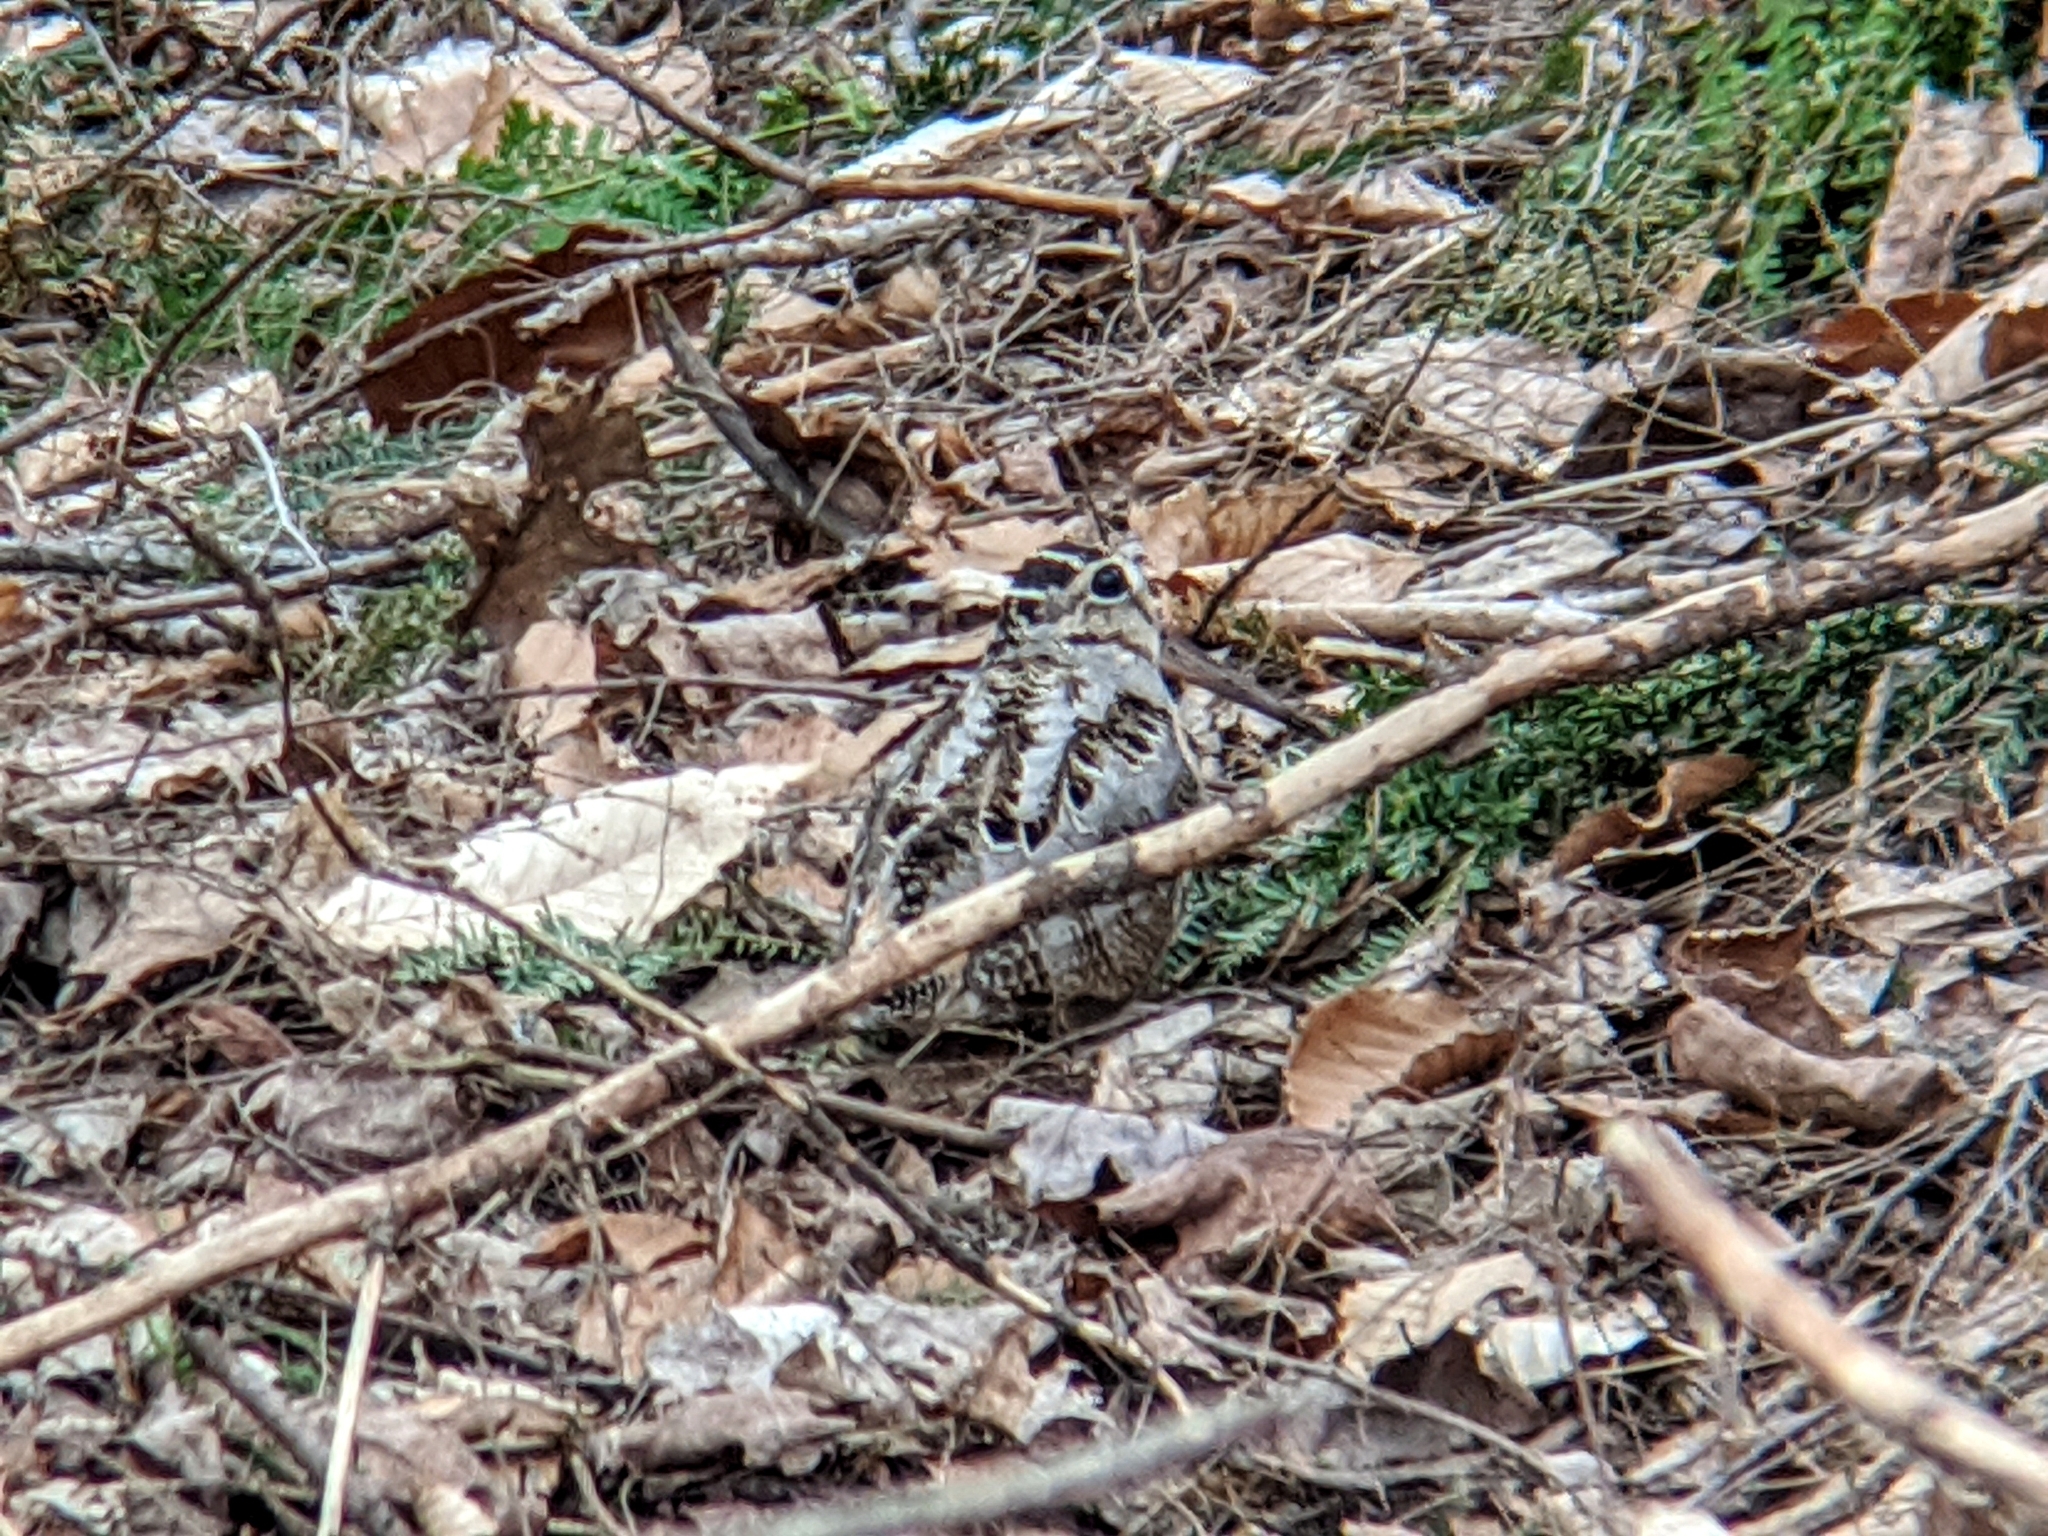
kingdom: Animalia
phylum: Chordata
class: Aves
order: Charadriiformes
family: Scolopacidae
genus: Scolopax
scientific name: Scolopax minor
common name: American woodcock
